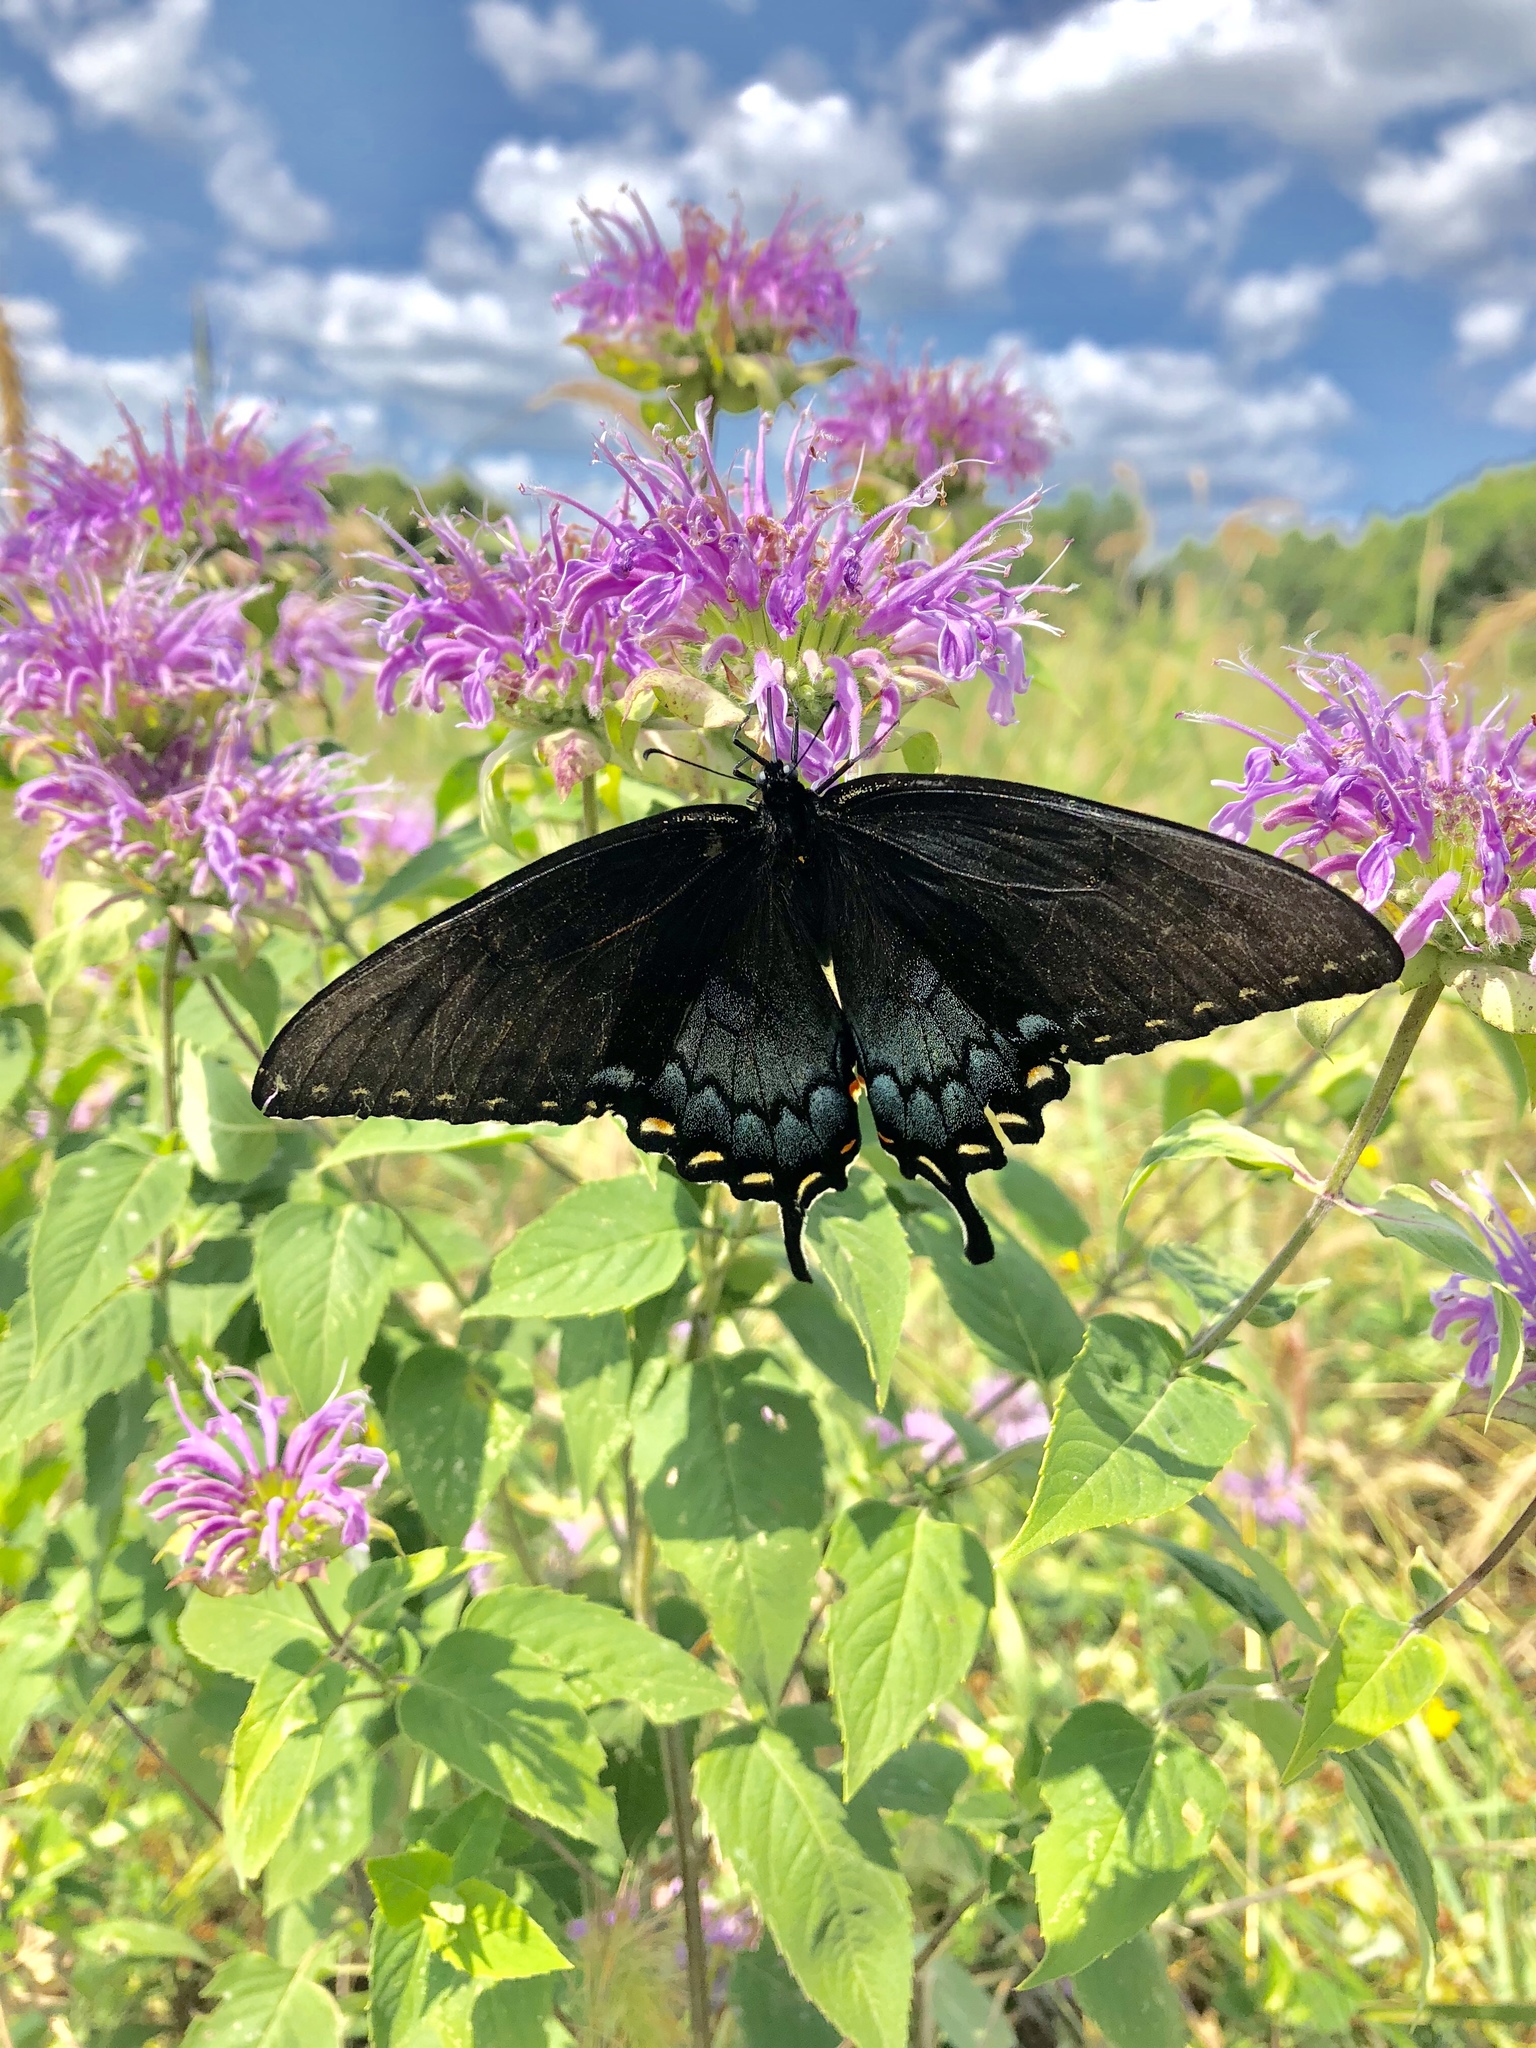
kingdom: Animalia
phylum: Arthropoda
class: Insecta
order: Lepidoptera
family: Papilionidae
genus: Papilio
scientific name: Papilio glaucus
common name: Tiger swallowtail
